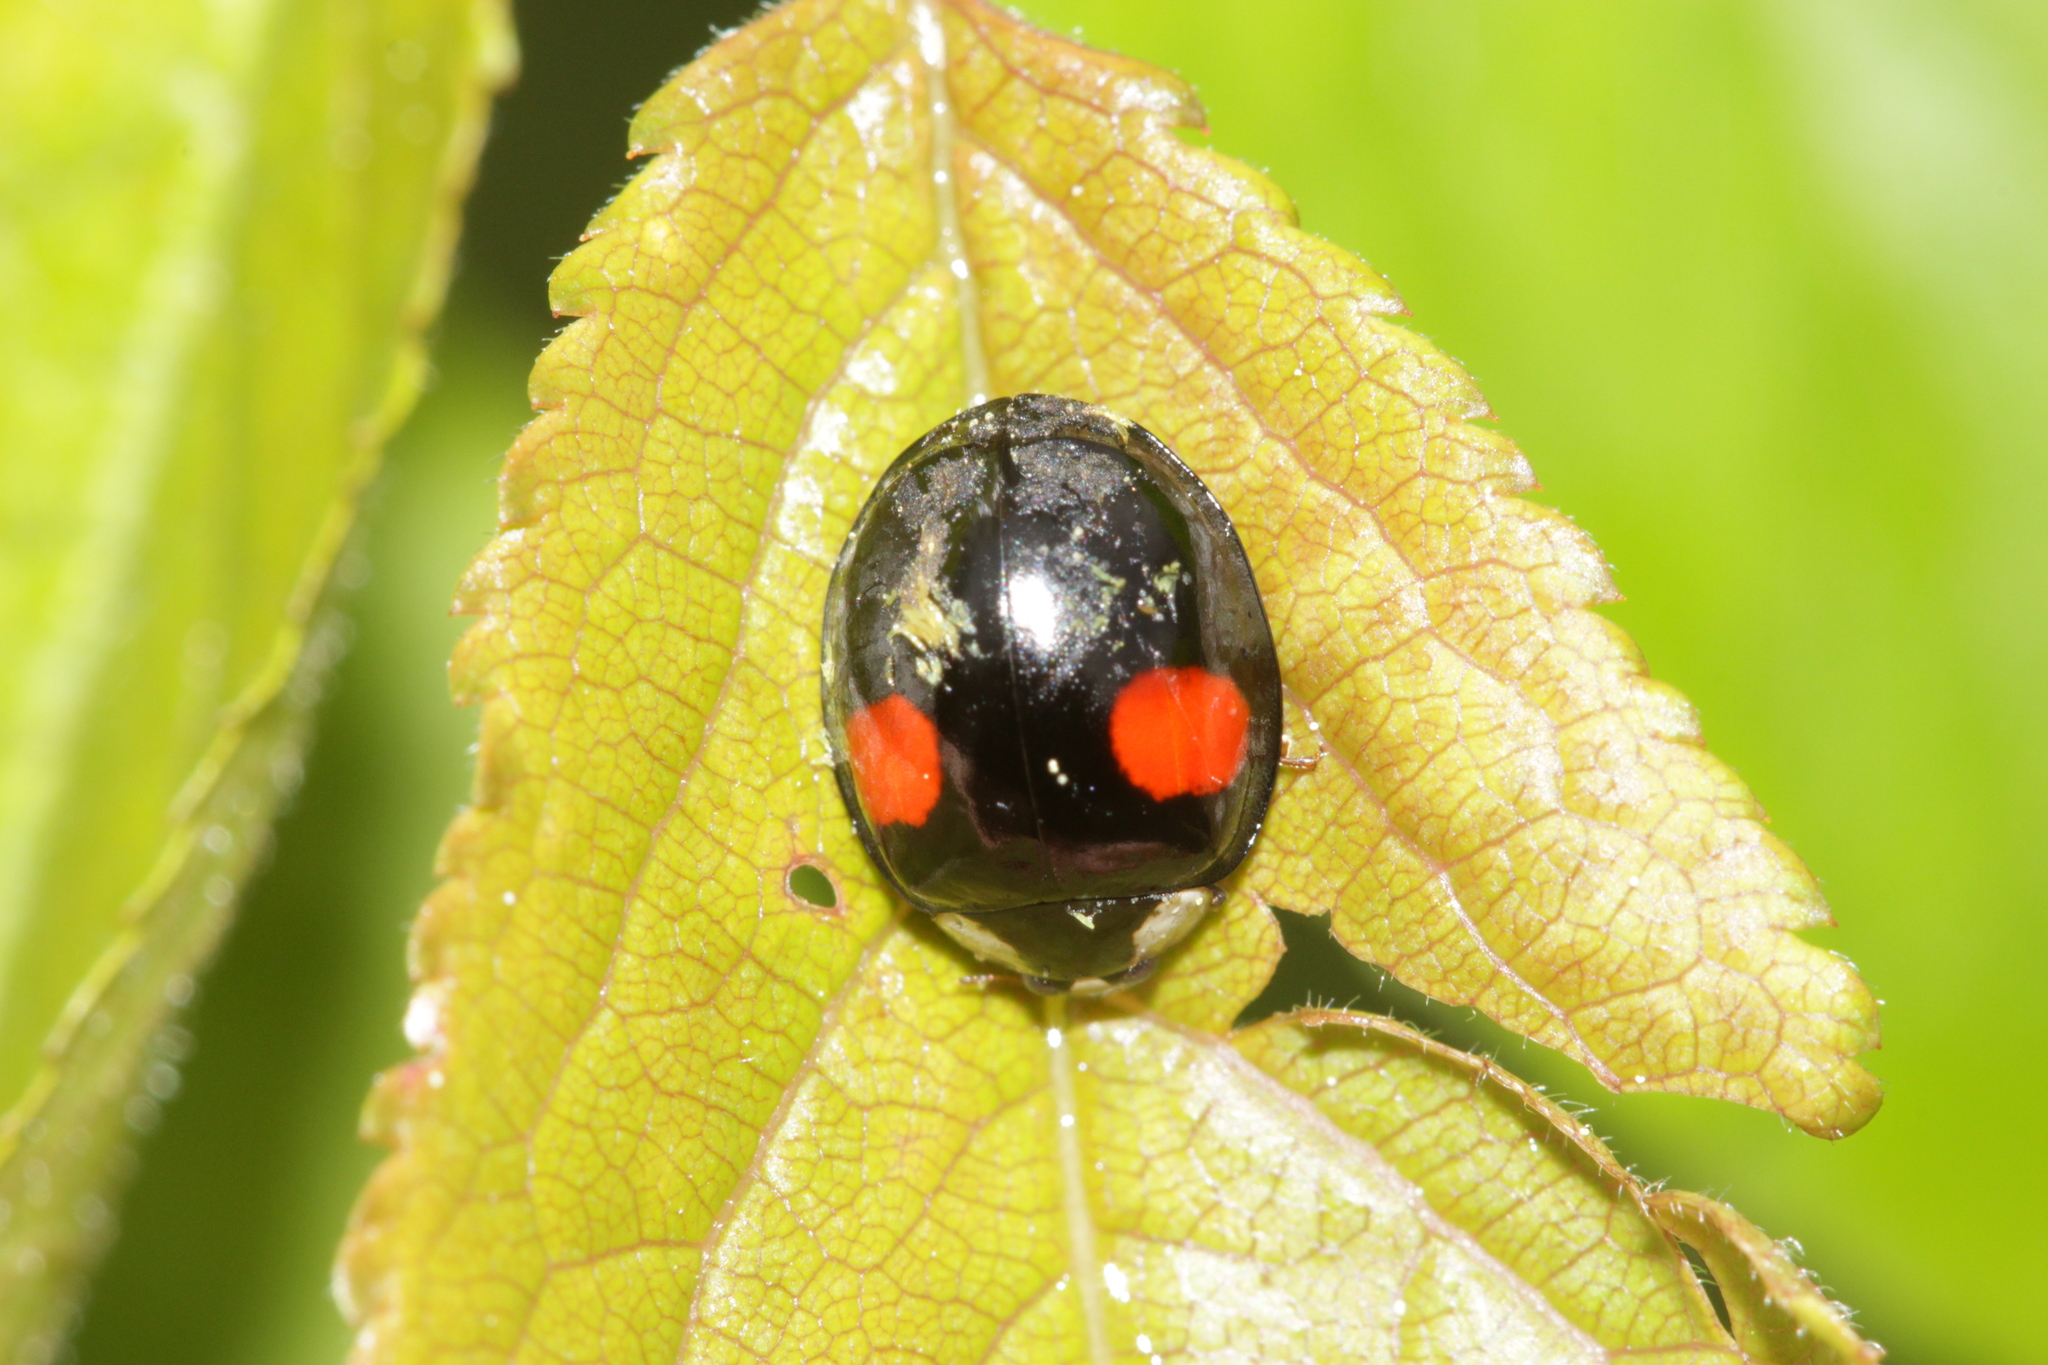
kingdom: Animalia
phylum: Arthropoda
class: Insecta
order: Coleoptera
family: Coccinellidae
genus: Harmonia
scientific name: Harmonia axyridis
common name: Harlequin ladybird
